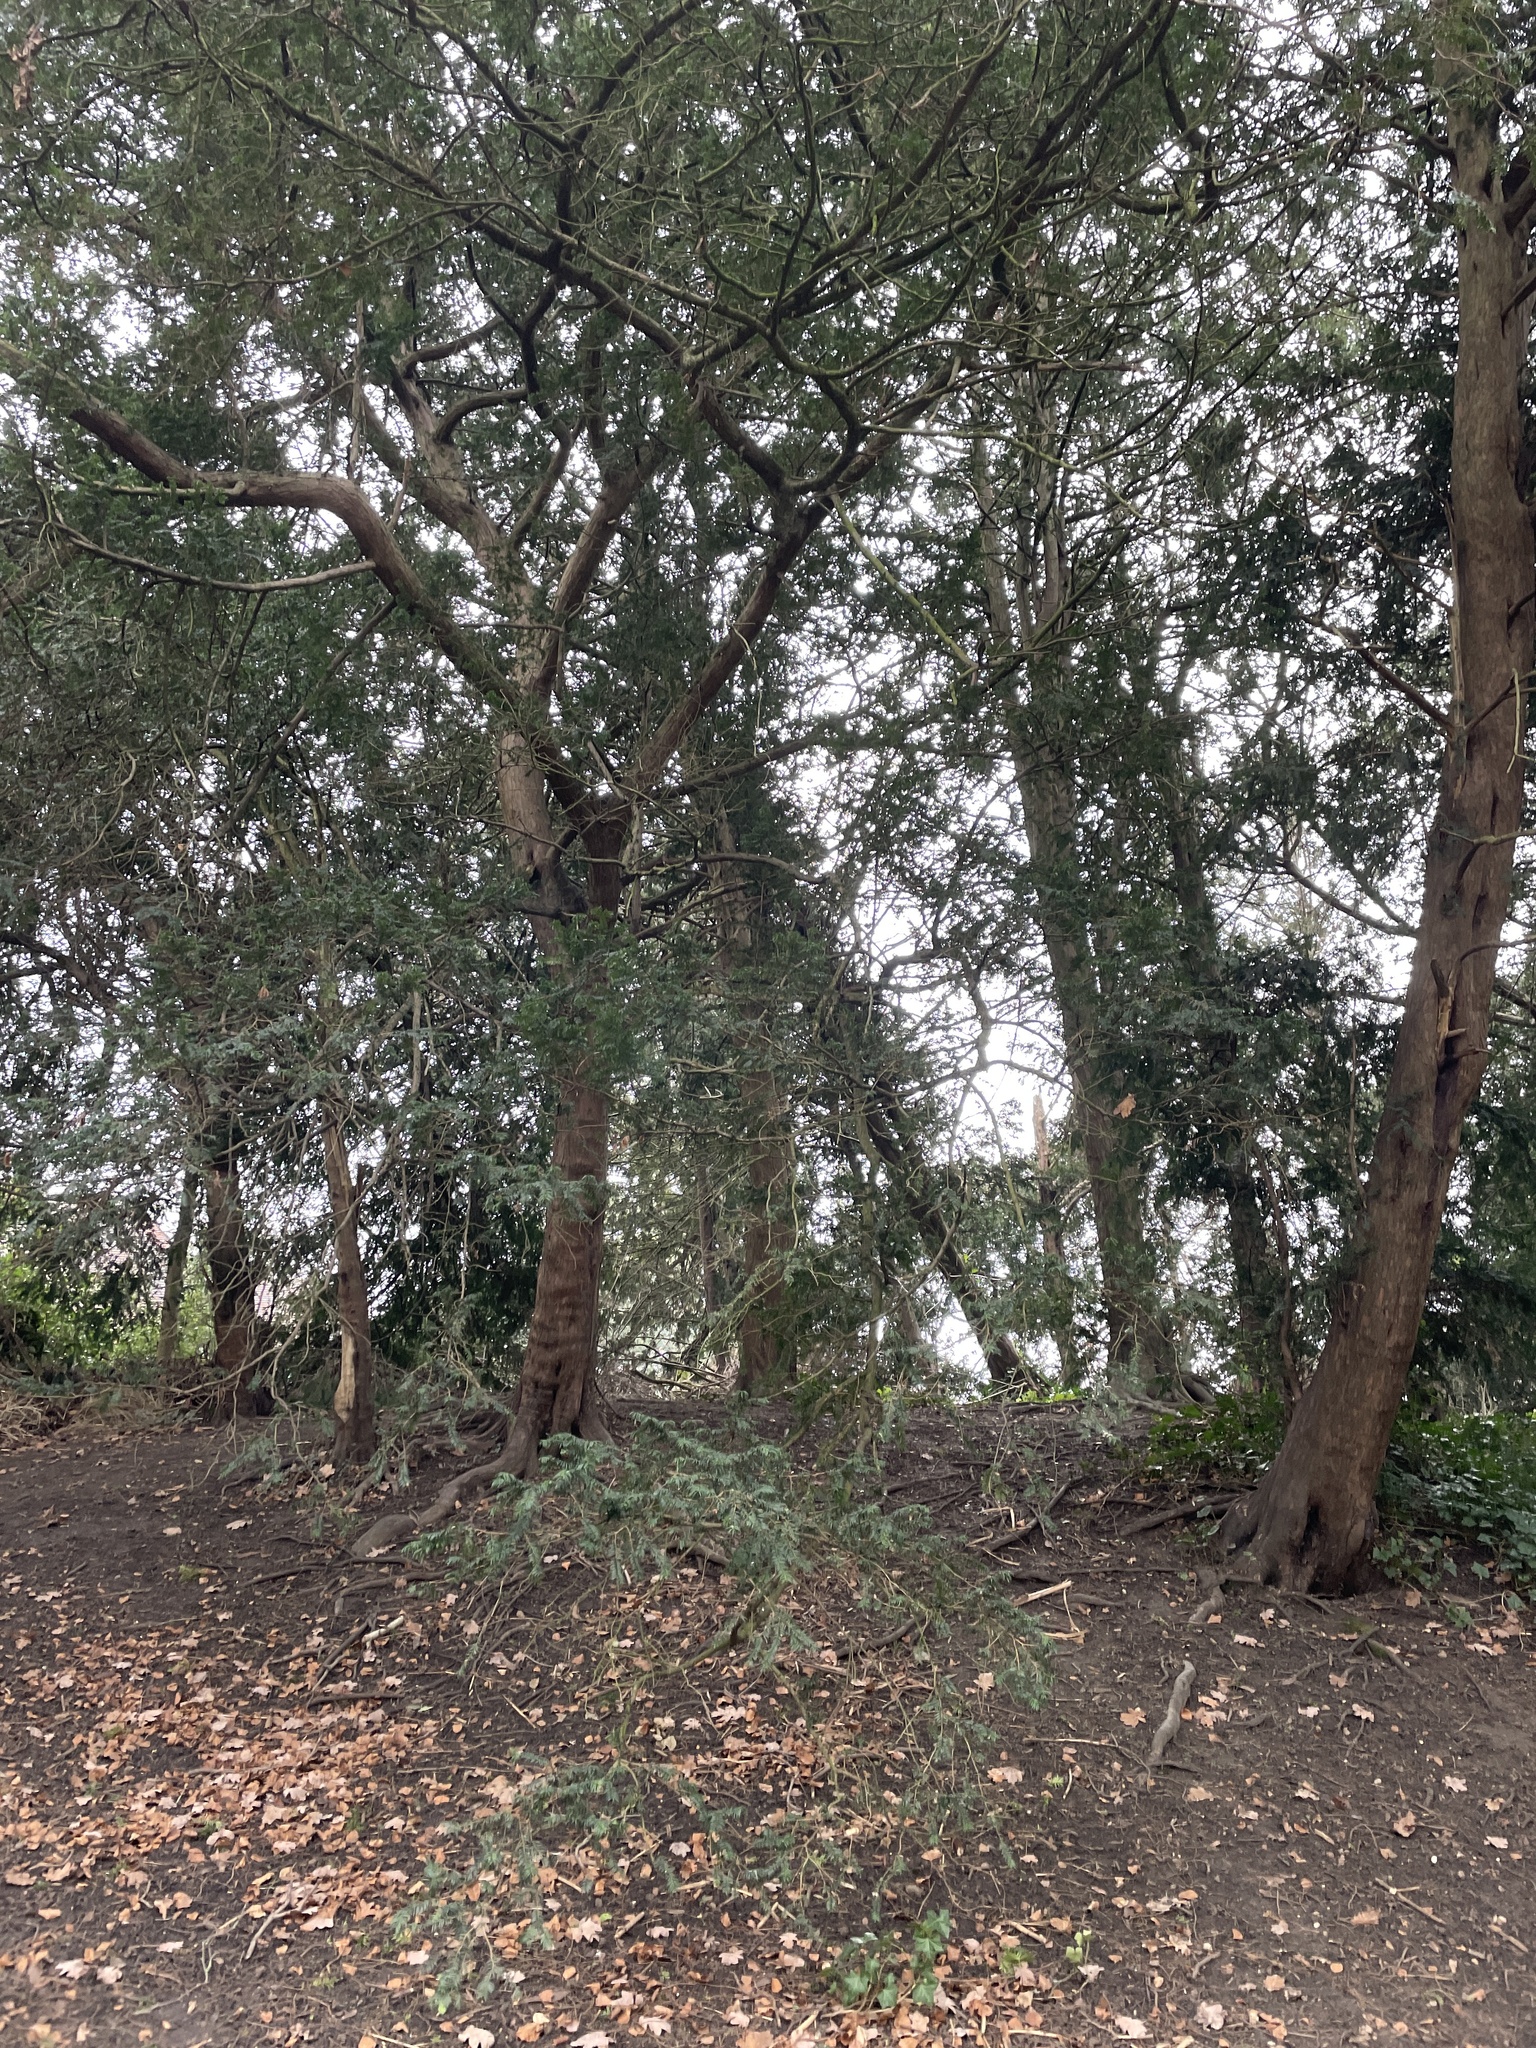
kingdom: Plantae
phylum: Tracheophyta
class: Pinopsida
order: Pinales
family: Taxaceae
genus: Taxus
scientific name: Taxus baccata
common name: Yew
